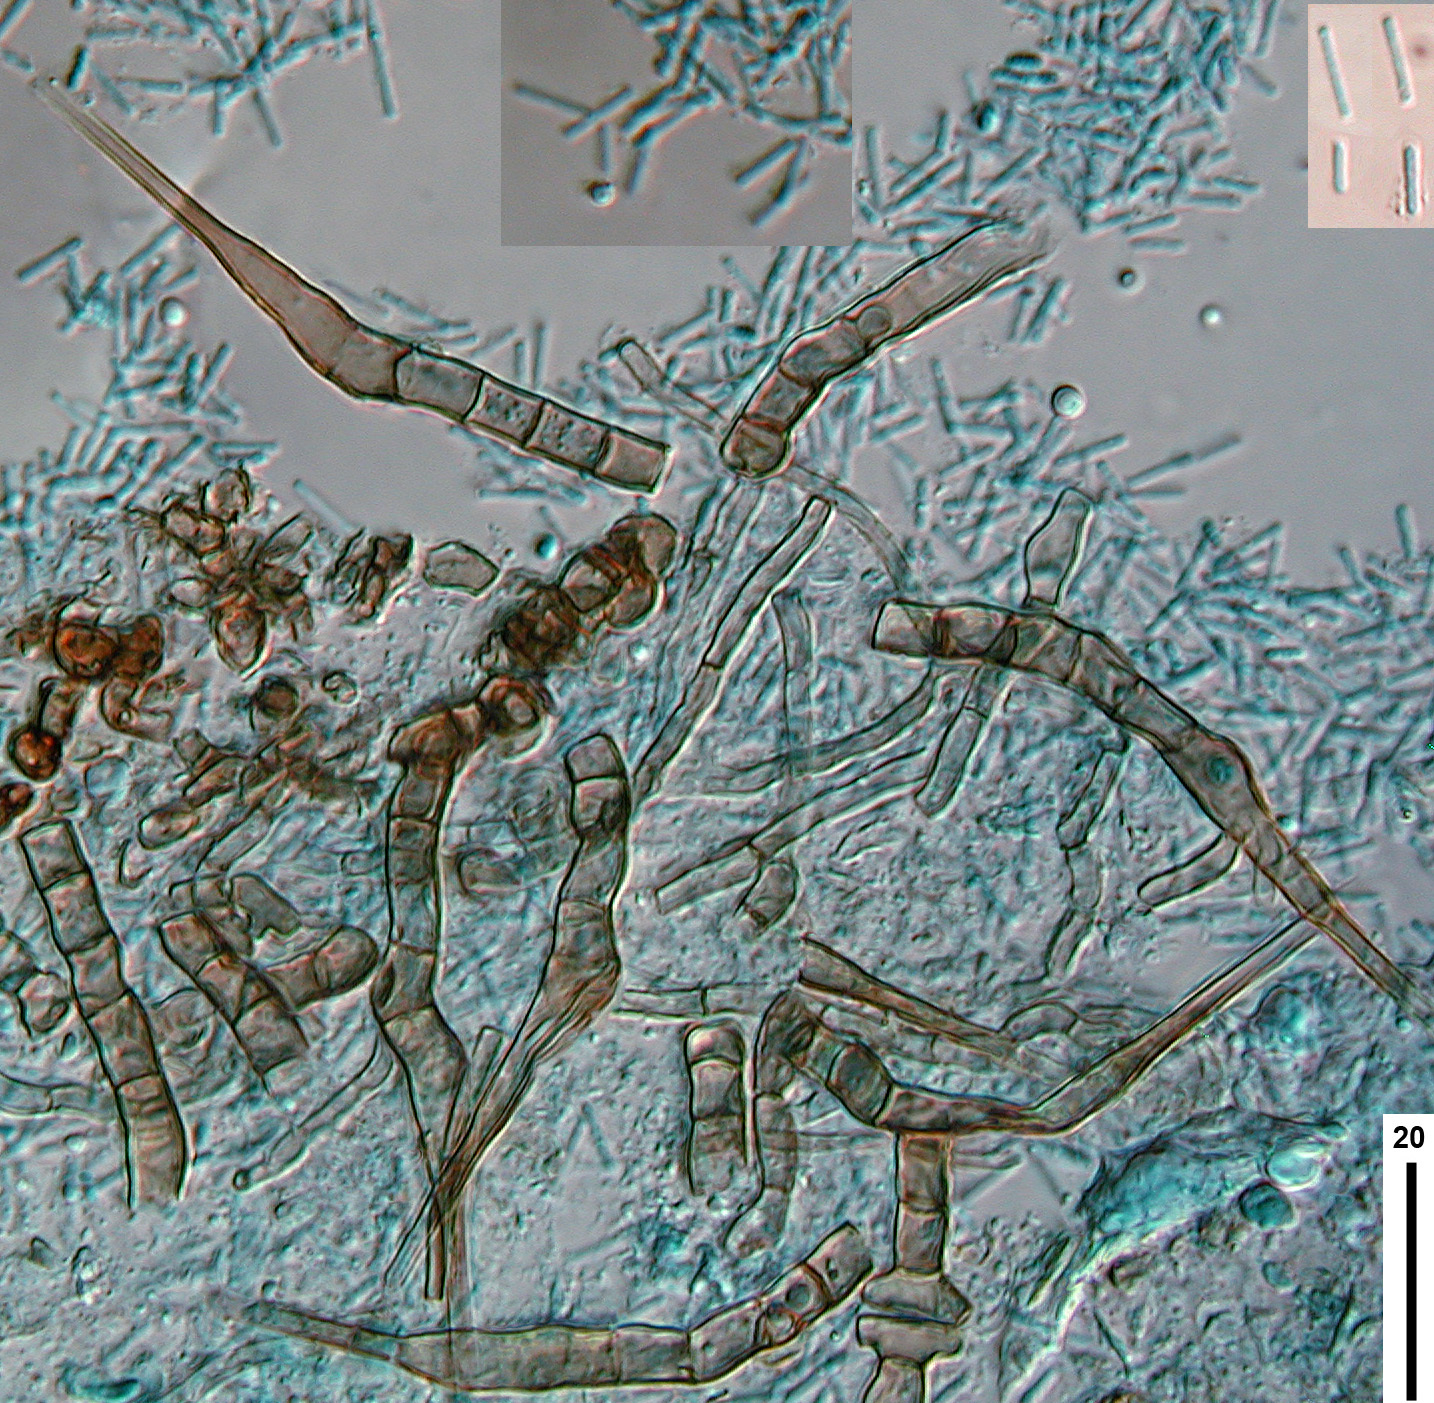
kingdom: Fungi
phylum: Ascomycota
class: Leotiomycetes
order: Helotiales
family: Pezizellaceae
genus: Chalara
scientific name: Chalara dualis
